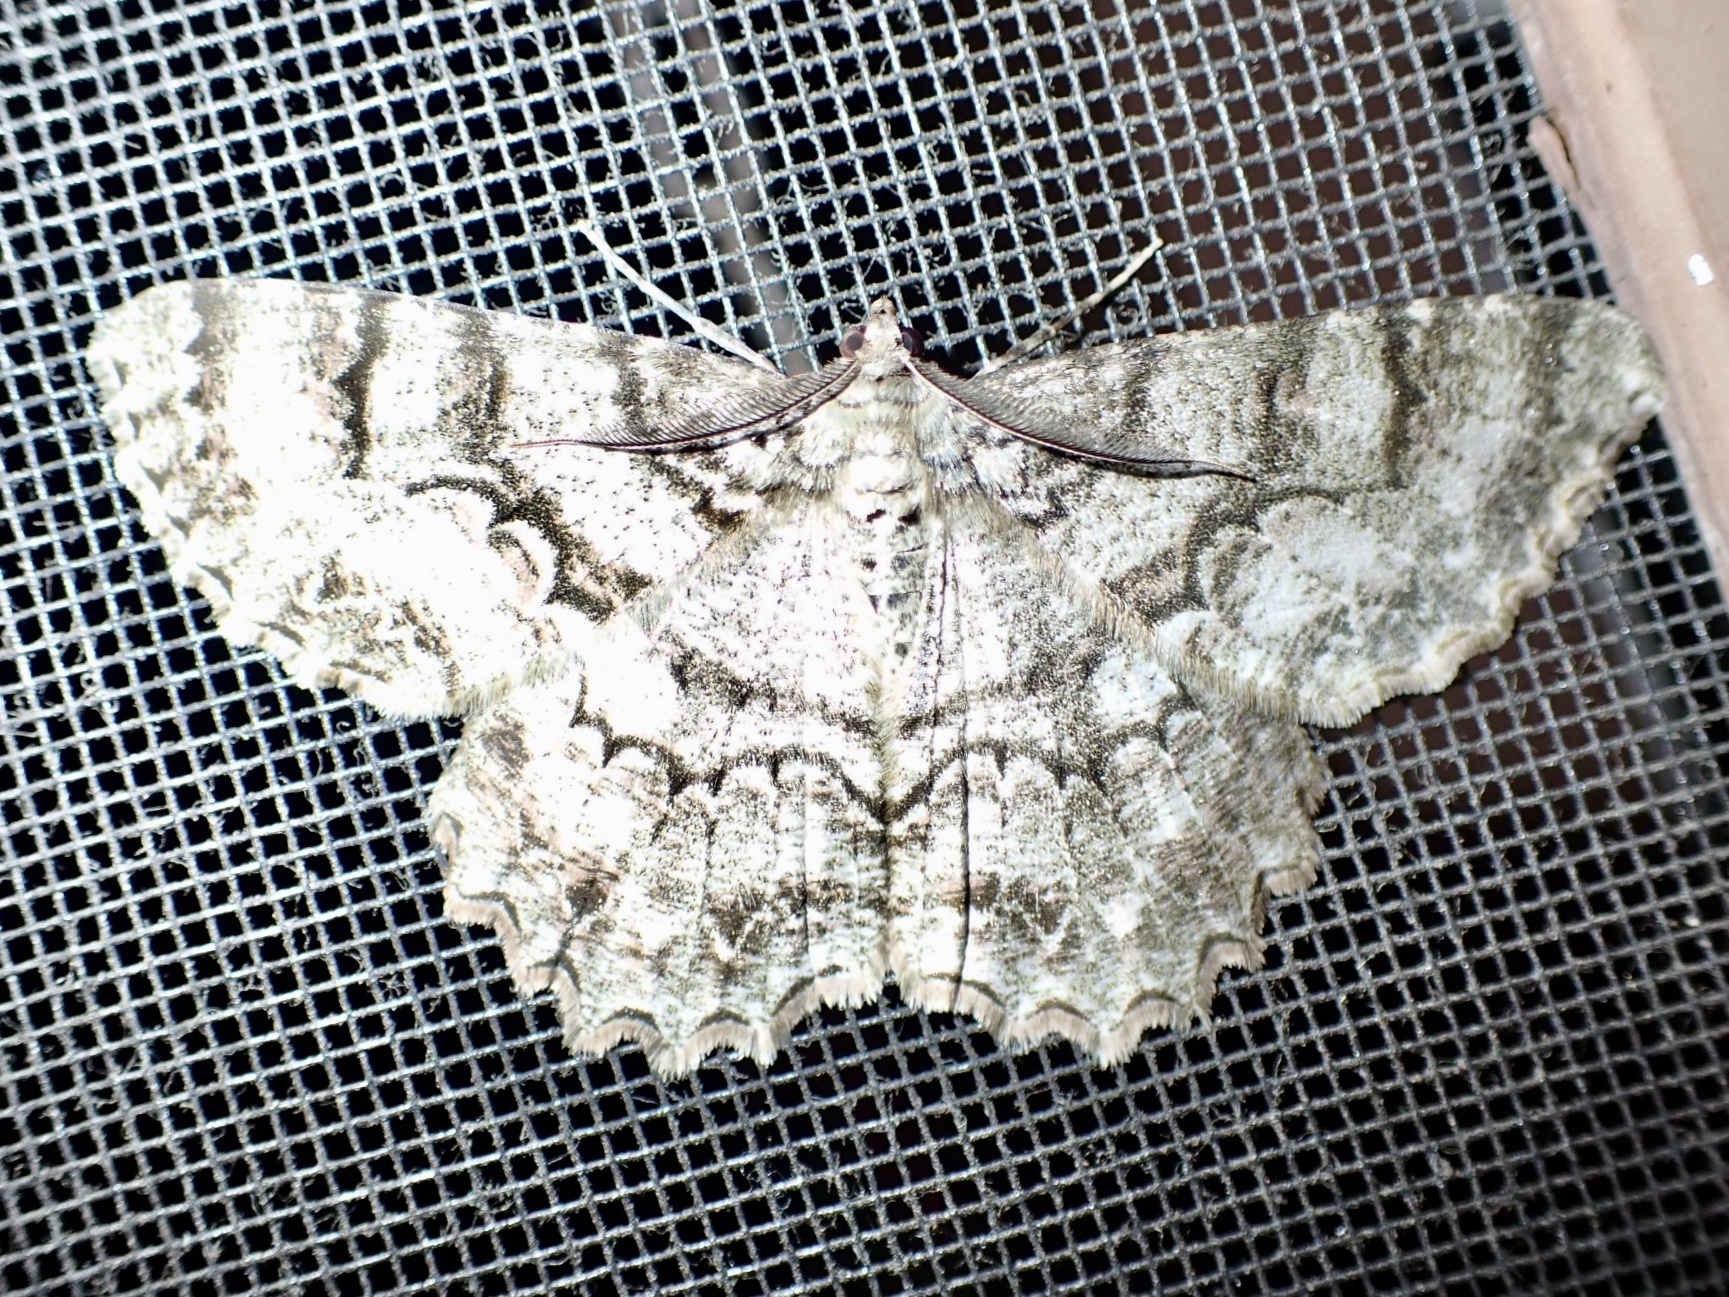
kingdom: Animalia
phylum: Arthropoda
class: Insecta
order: Lepidoptera
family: Geometridae
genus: Epimecis
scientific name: Epimecis hortaria
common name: Tulip-tree beauty
